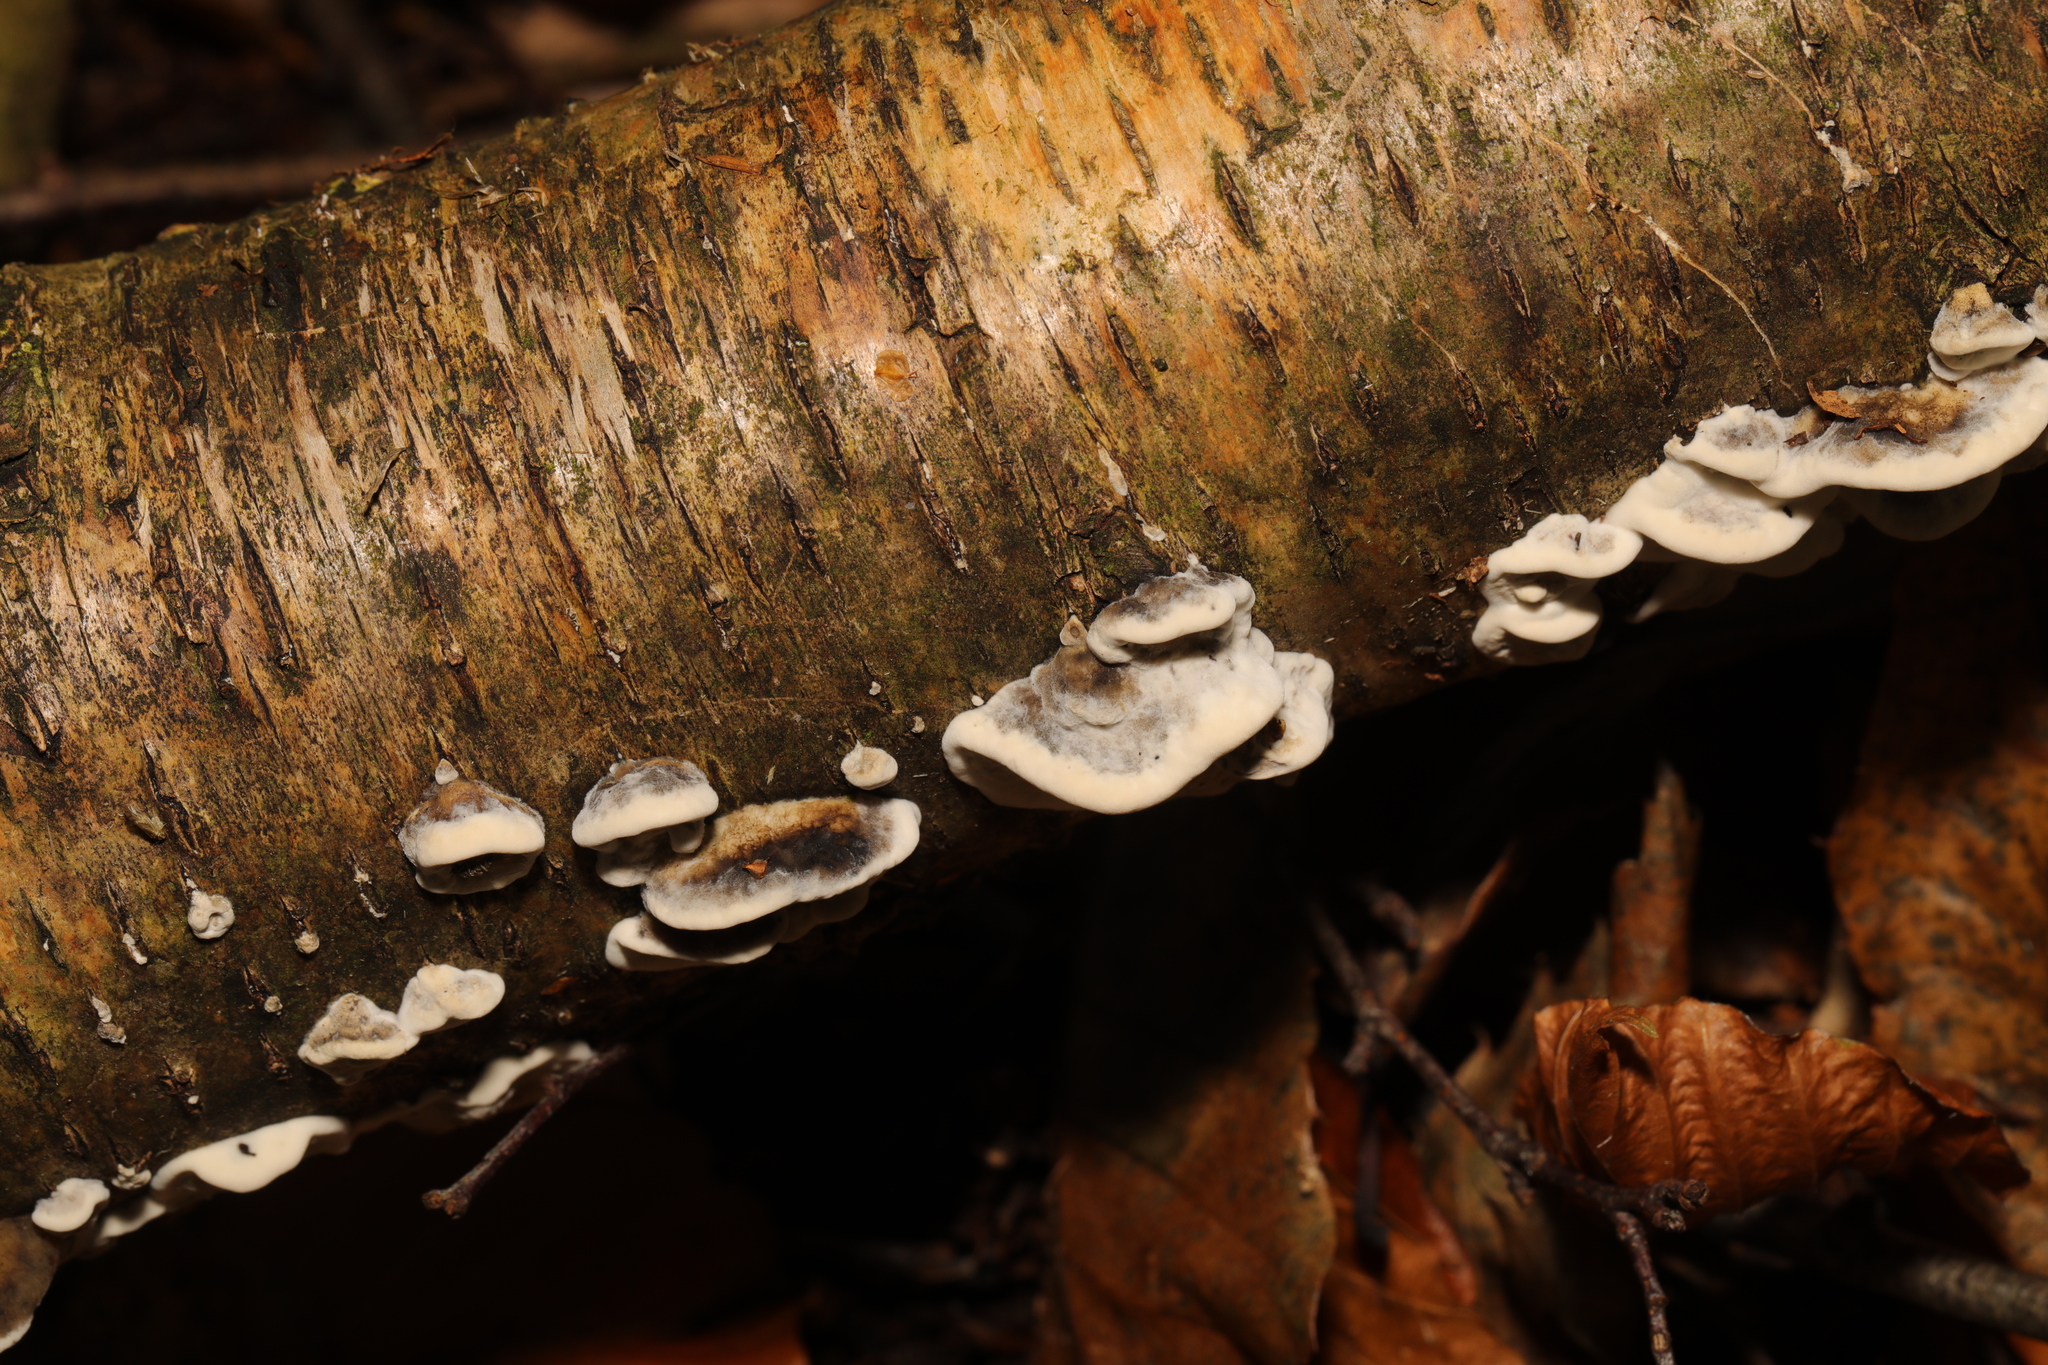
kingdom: Fungi
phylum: Basidiomycota
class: Agaricomycetes
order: Polyporales
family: Phanerochaetaceae
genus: Bjerkandera
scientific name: Bjerkandera adusta
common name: Smoky bracket
